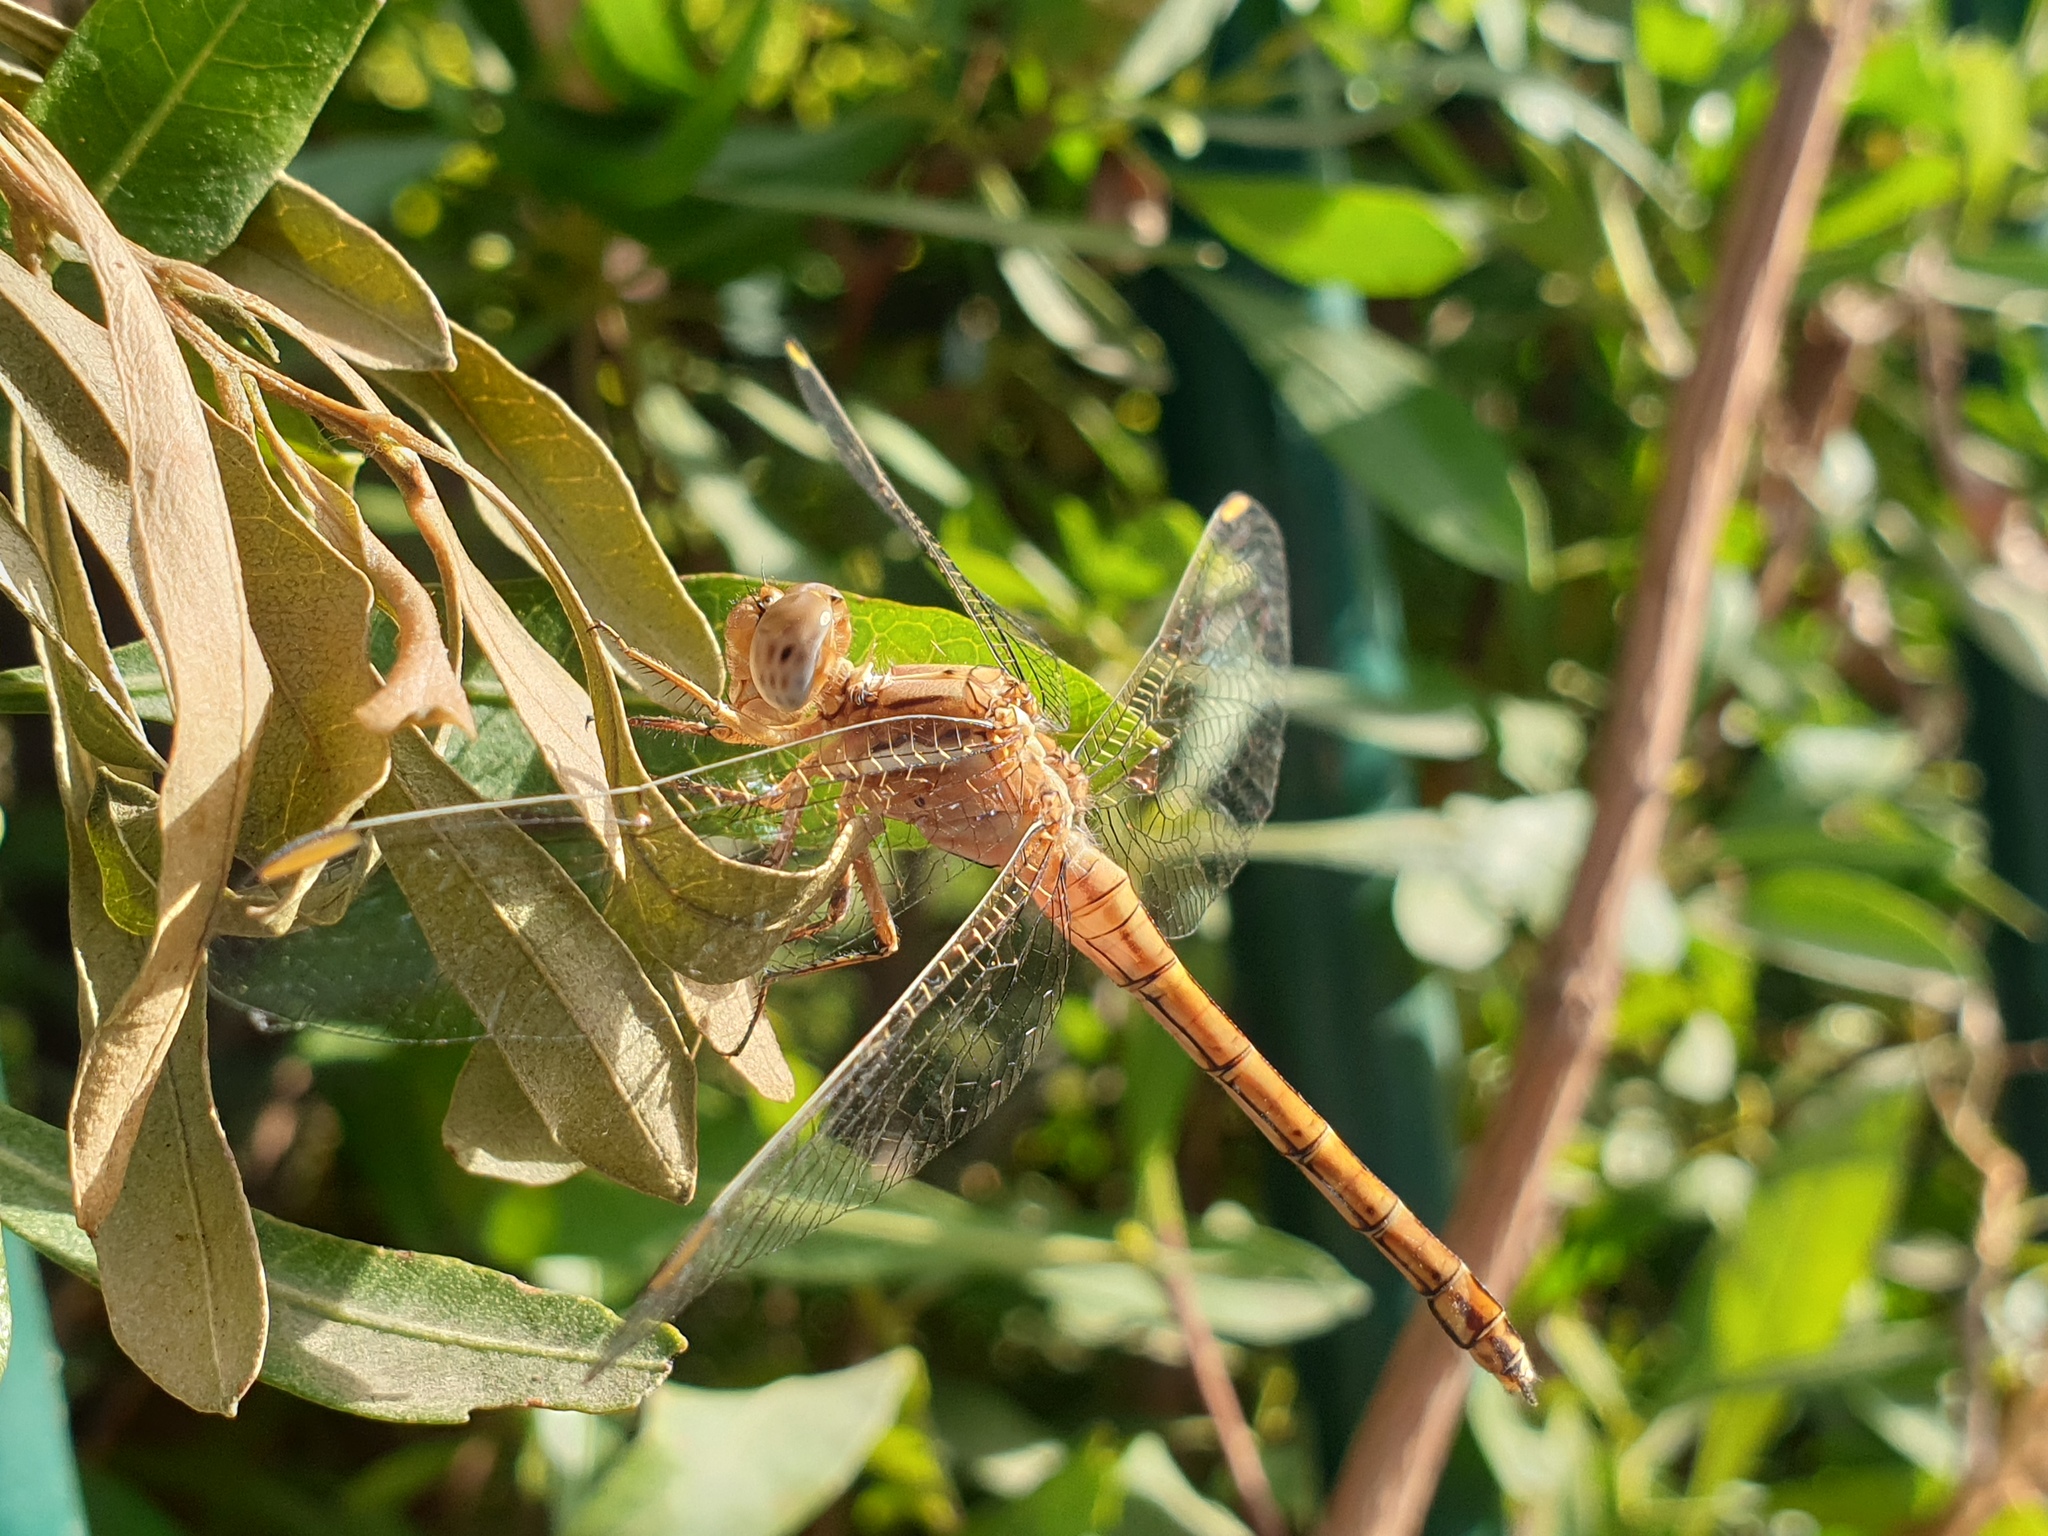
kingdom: Animalia
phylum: Arthropoda
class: Insecta
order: Odonata
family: Libellulidae
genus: Orthetrum
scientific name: Orthetrum chrysostigma
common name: Epaulet skimmer
